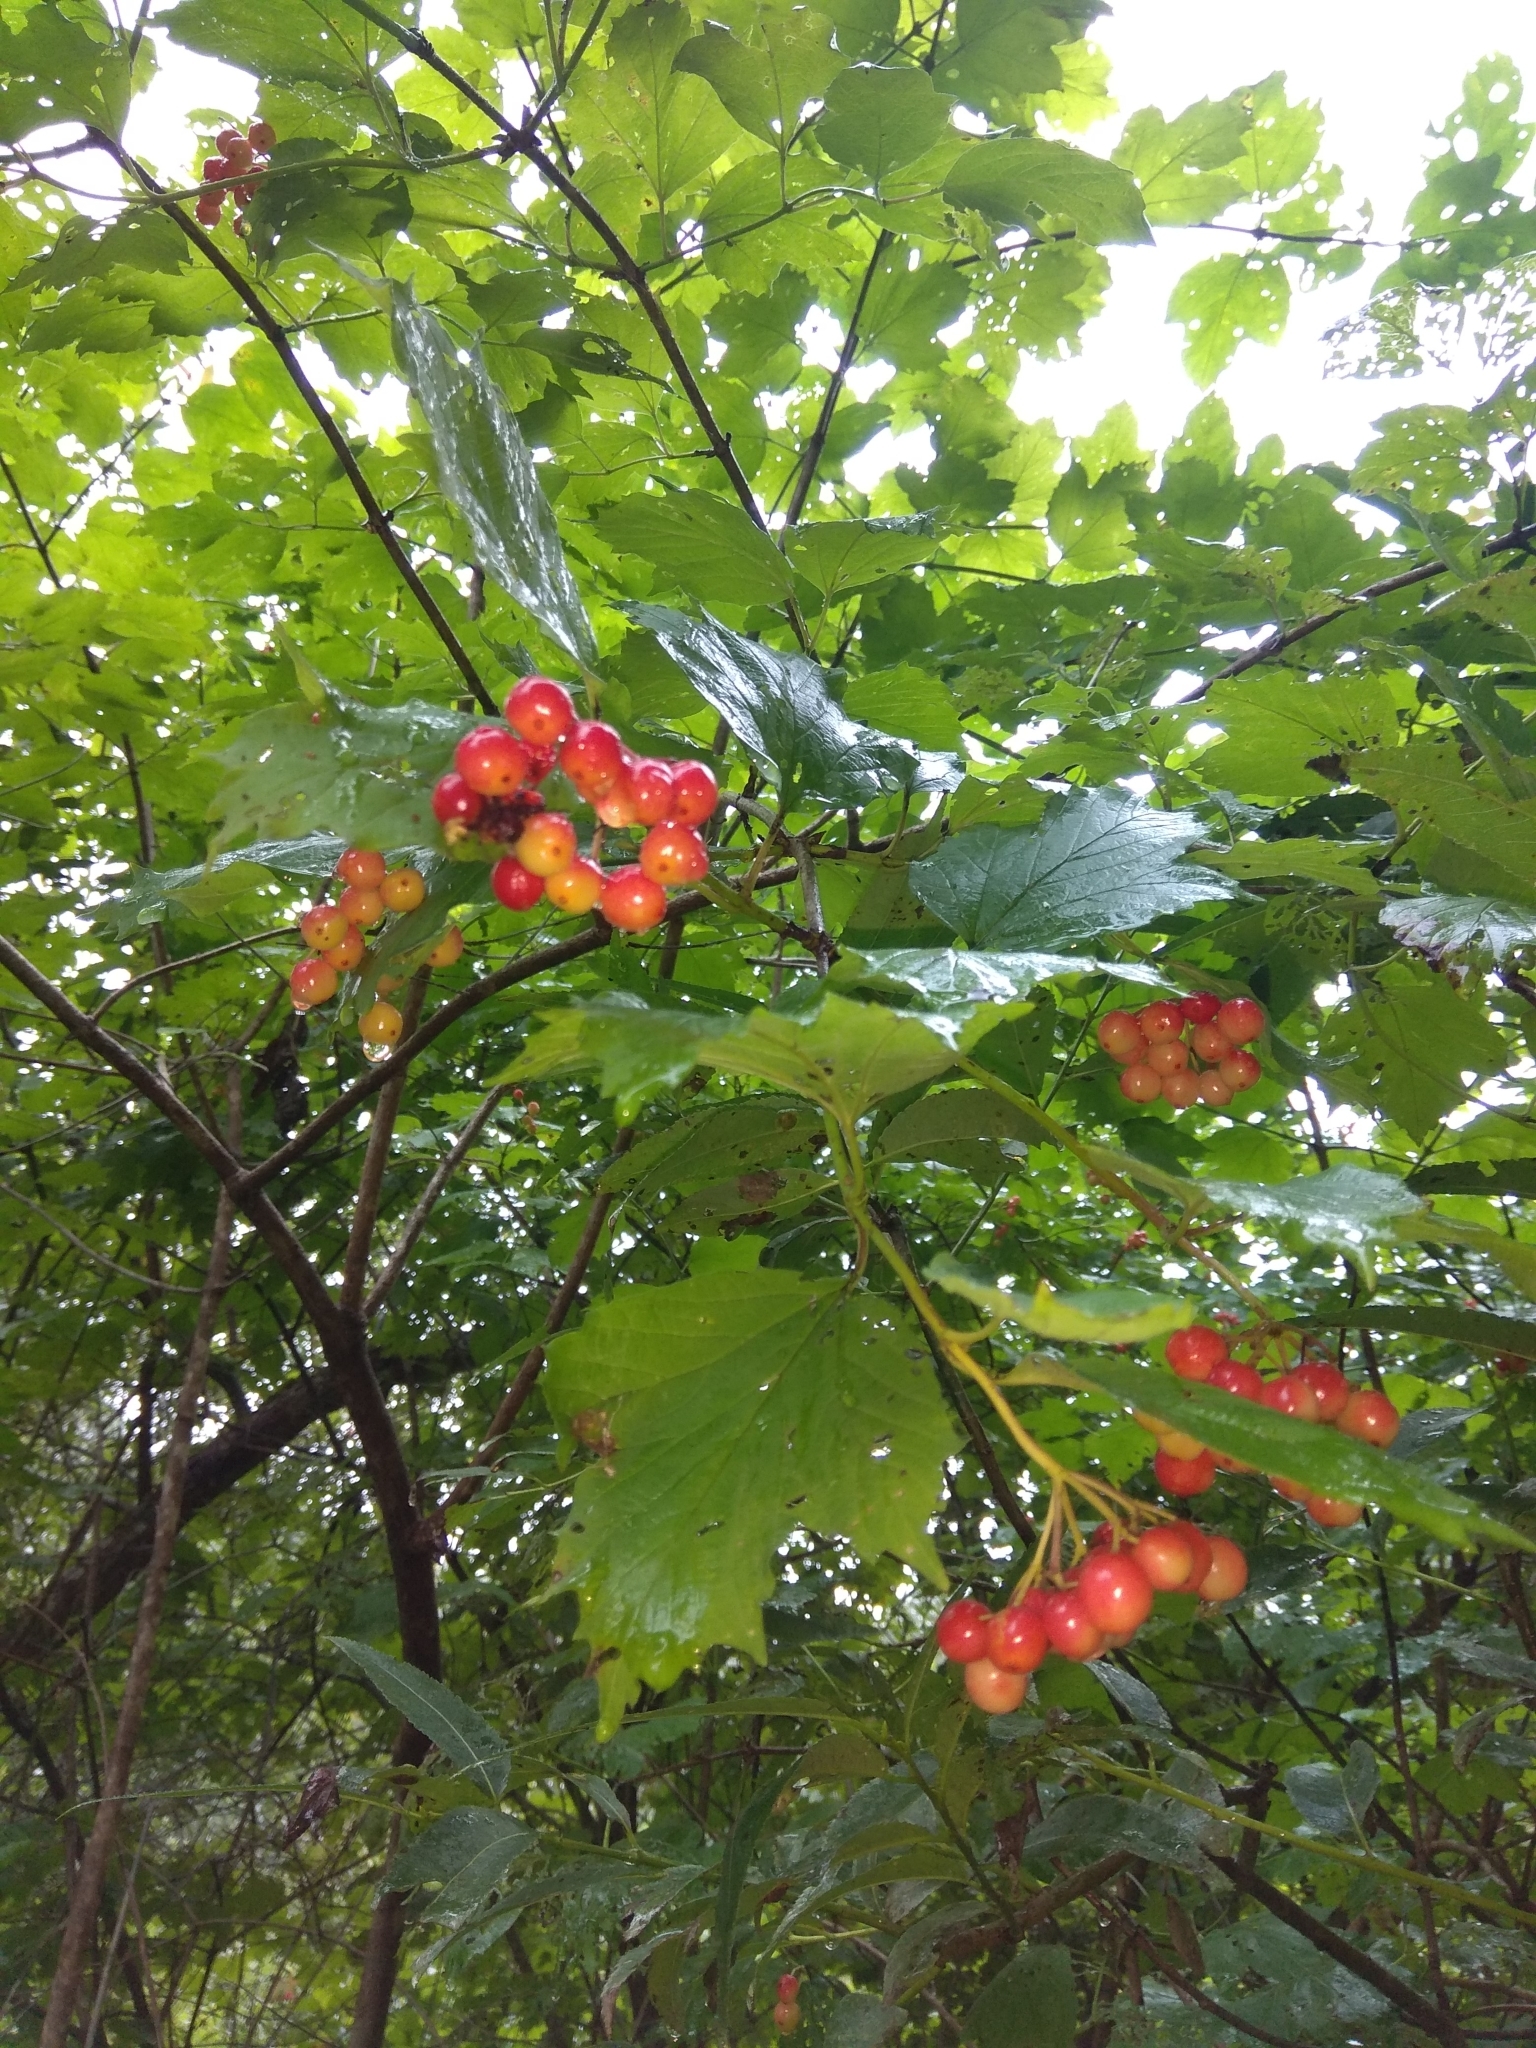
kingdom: Plantae
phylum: Tracheophyta
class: Magnoliopsida
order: Dipsacales
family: Viburnaceae
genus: Viburnum
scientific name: Viburnum opulus
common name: Guelder-rose
